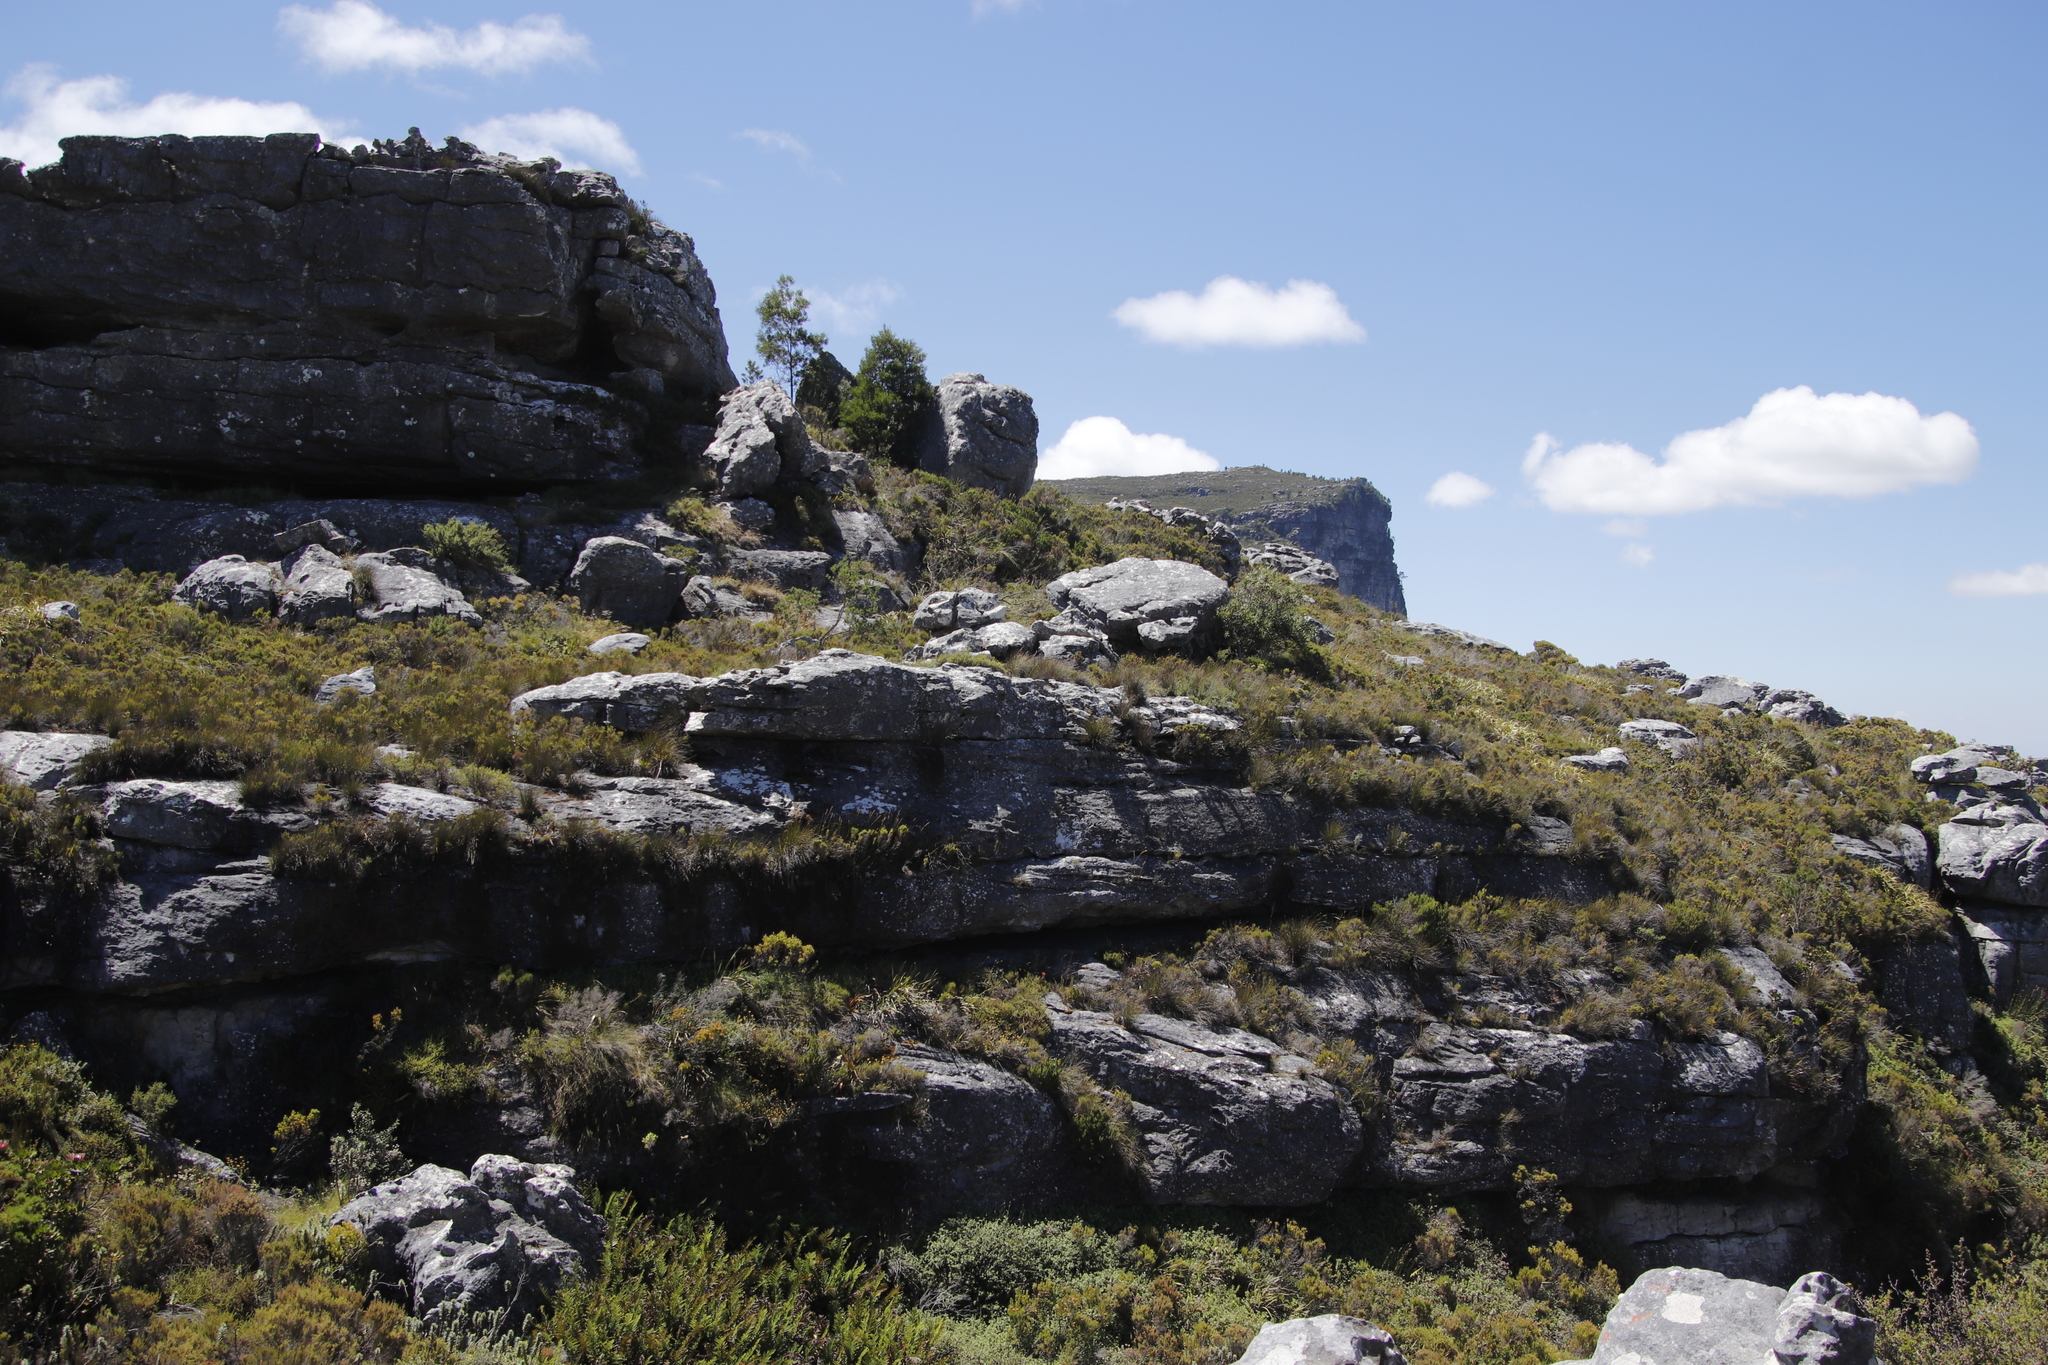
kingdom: Plantae
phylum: Tracheophyta
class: Magnoliopsida
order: Fabales
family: Fabaceae
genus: Acacia
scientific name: Acacia melanoxylon
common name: Blackwood
